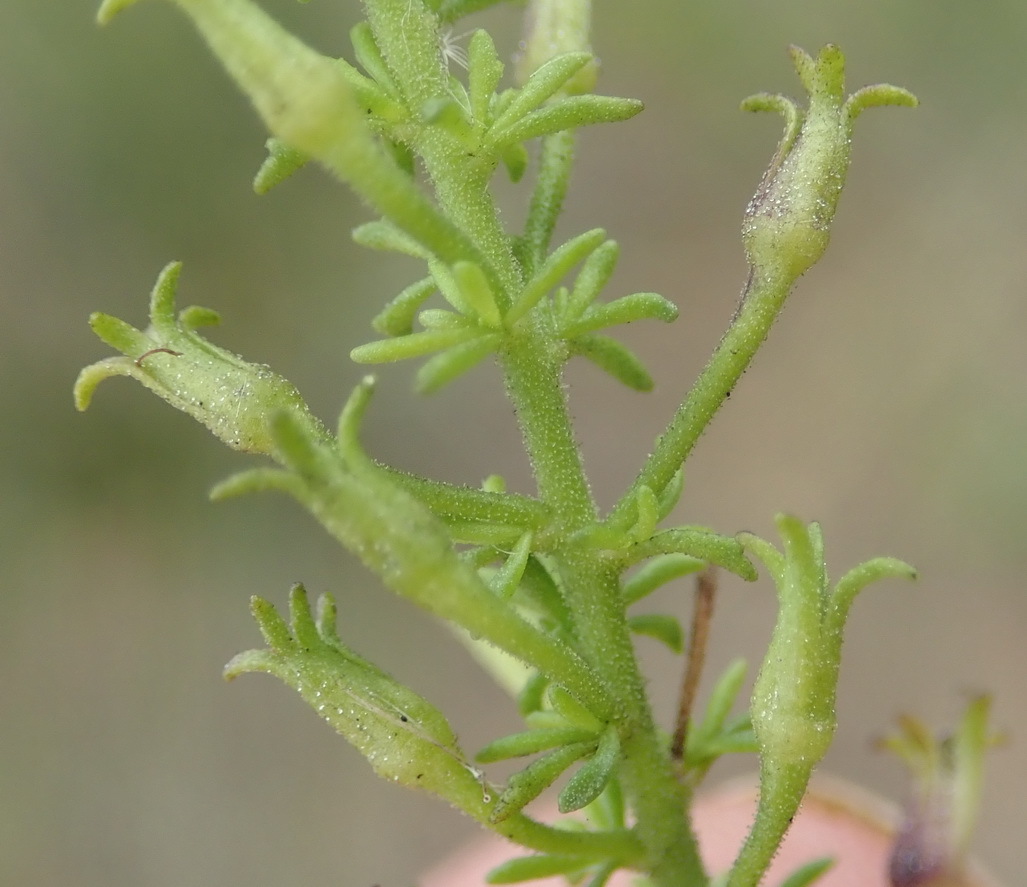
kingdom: Plantae
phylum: Tracheophyta
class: Magnoliopsida
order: Lamiales
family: Scrophulariaceae
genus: Jamesbrittenia
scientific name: Jamesbrittenia tenuifolia
